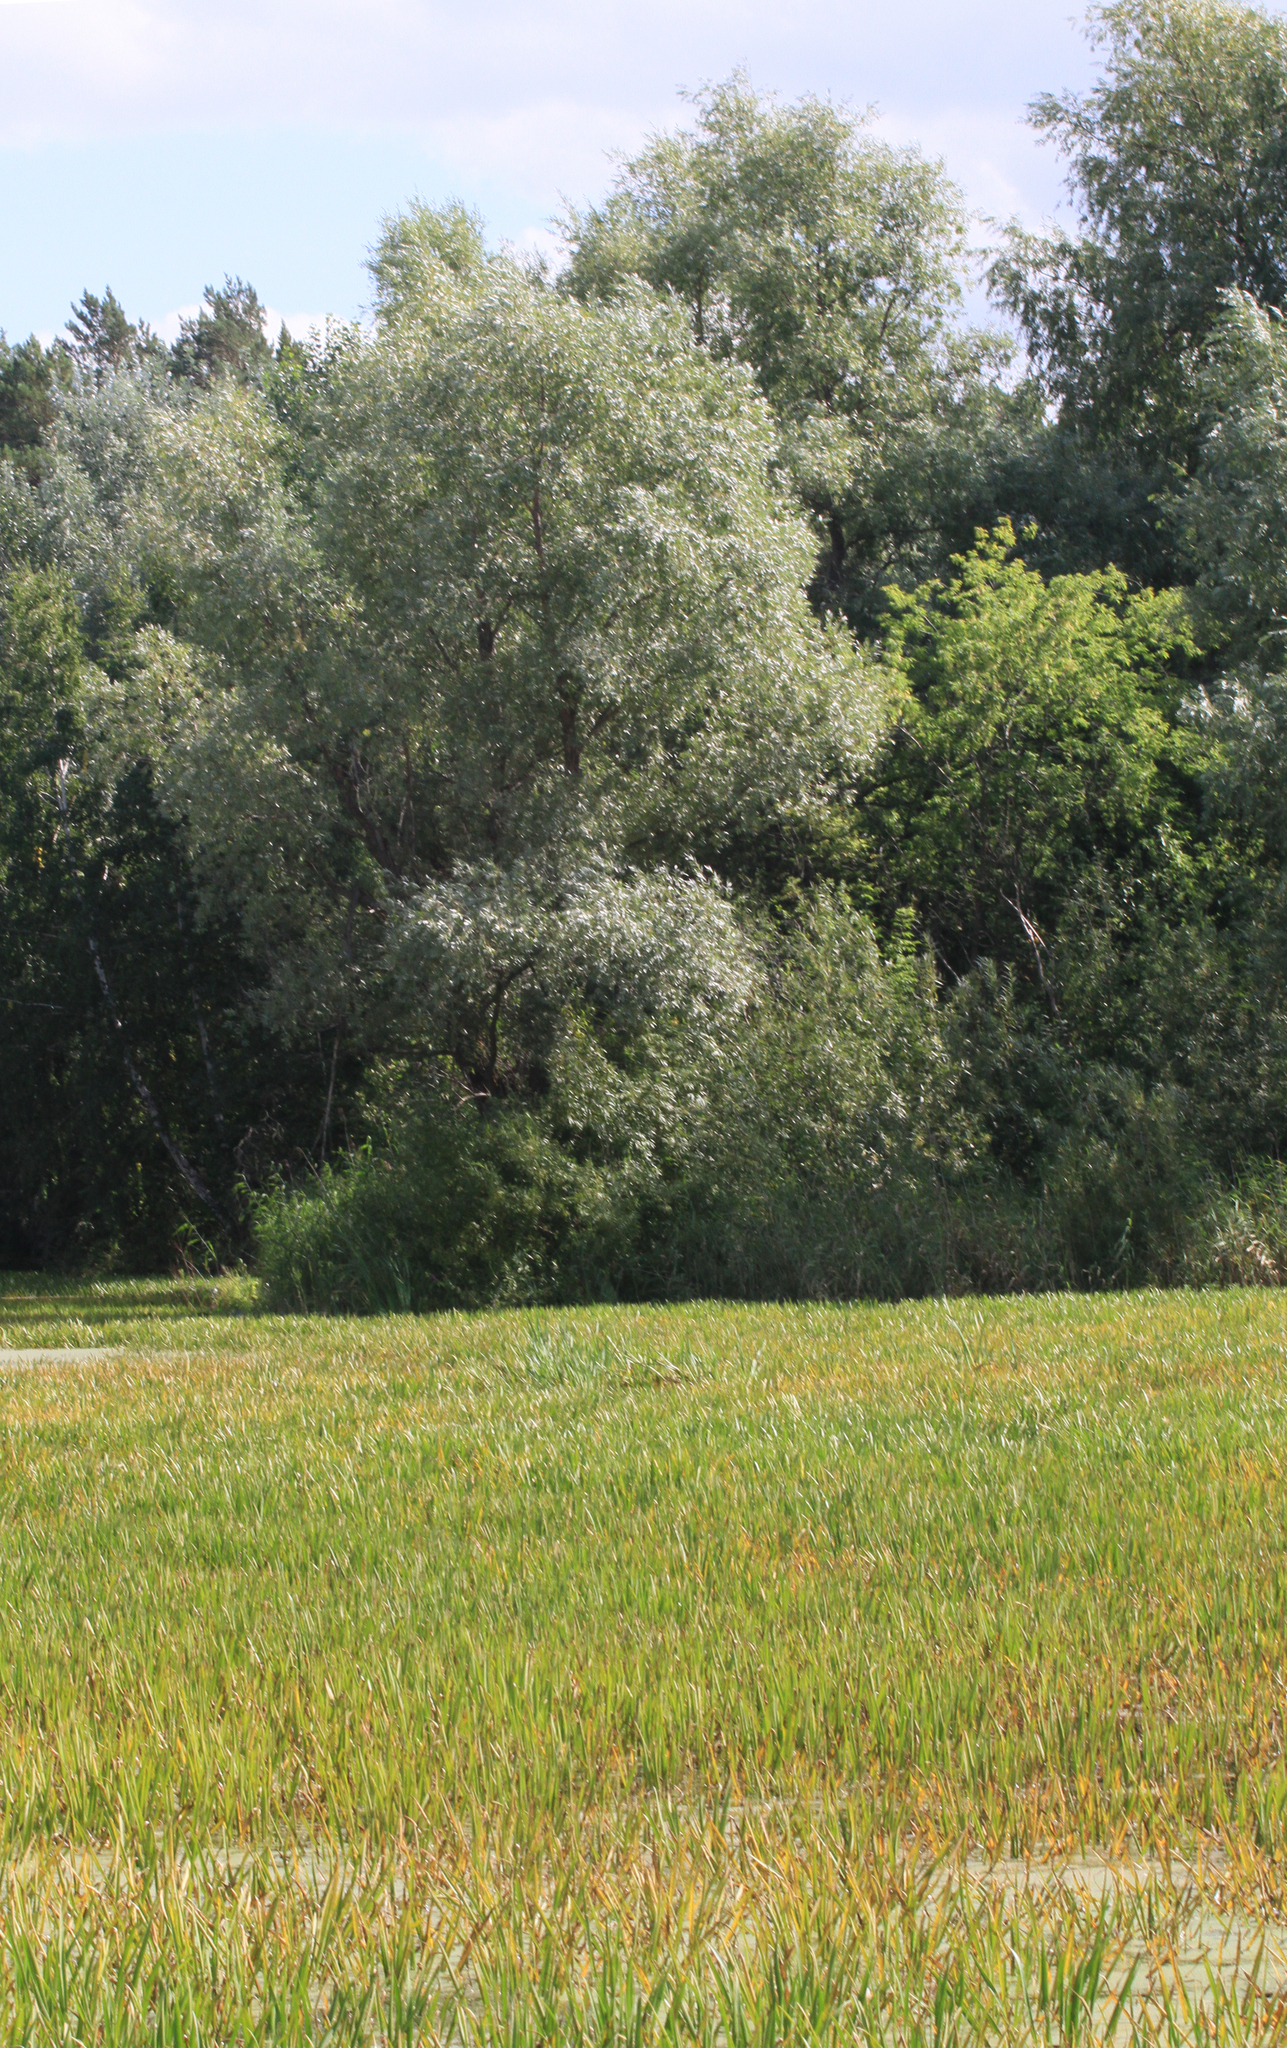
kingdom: Plantae
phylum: Tracheophyta
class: Magnoliopsida
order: Malpighiales
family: Salicaceae
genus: Salix
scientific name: Salix alba
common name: White willow
